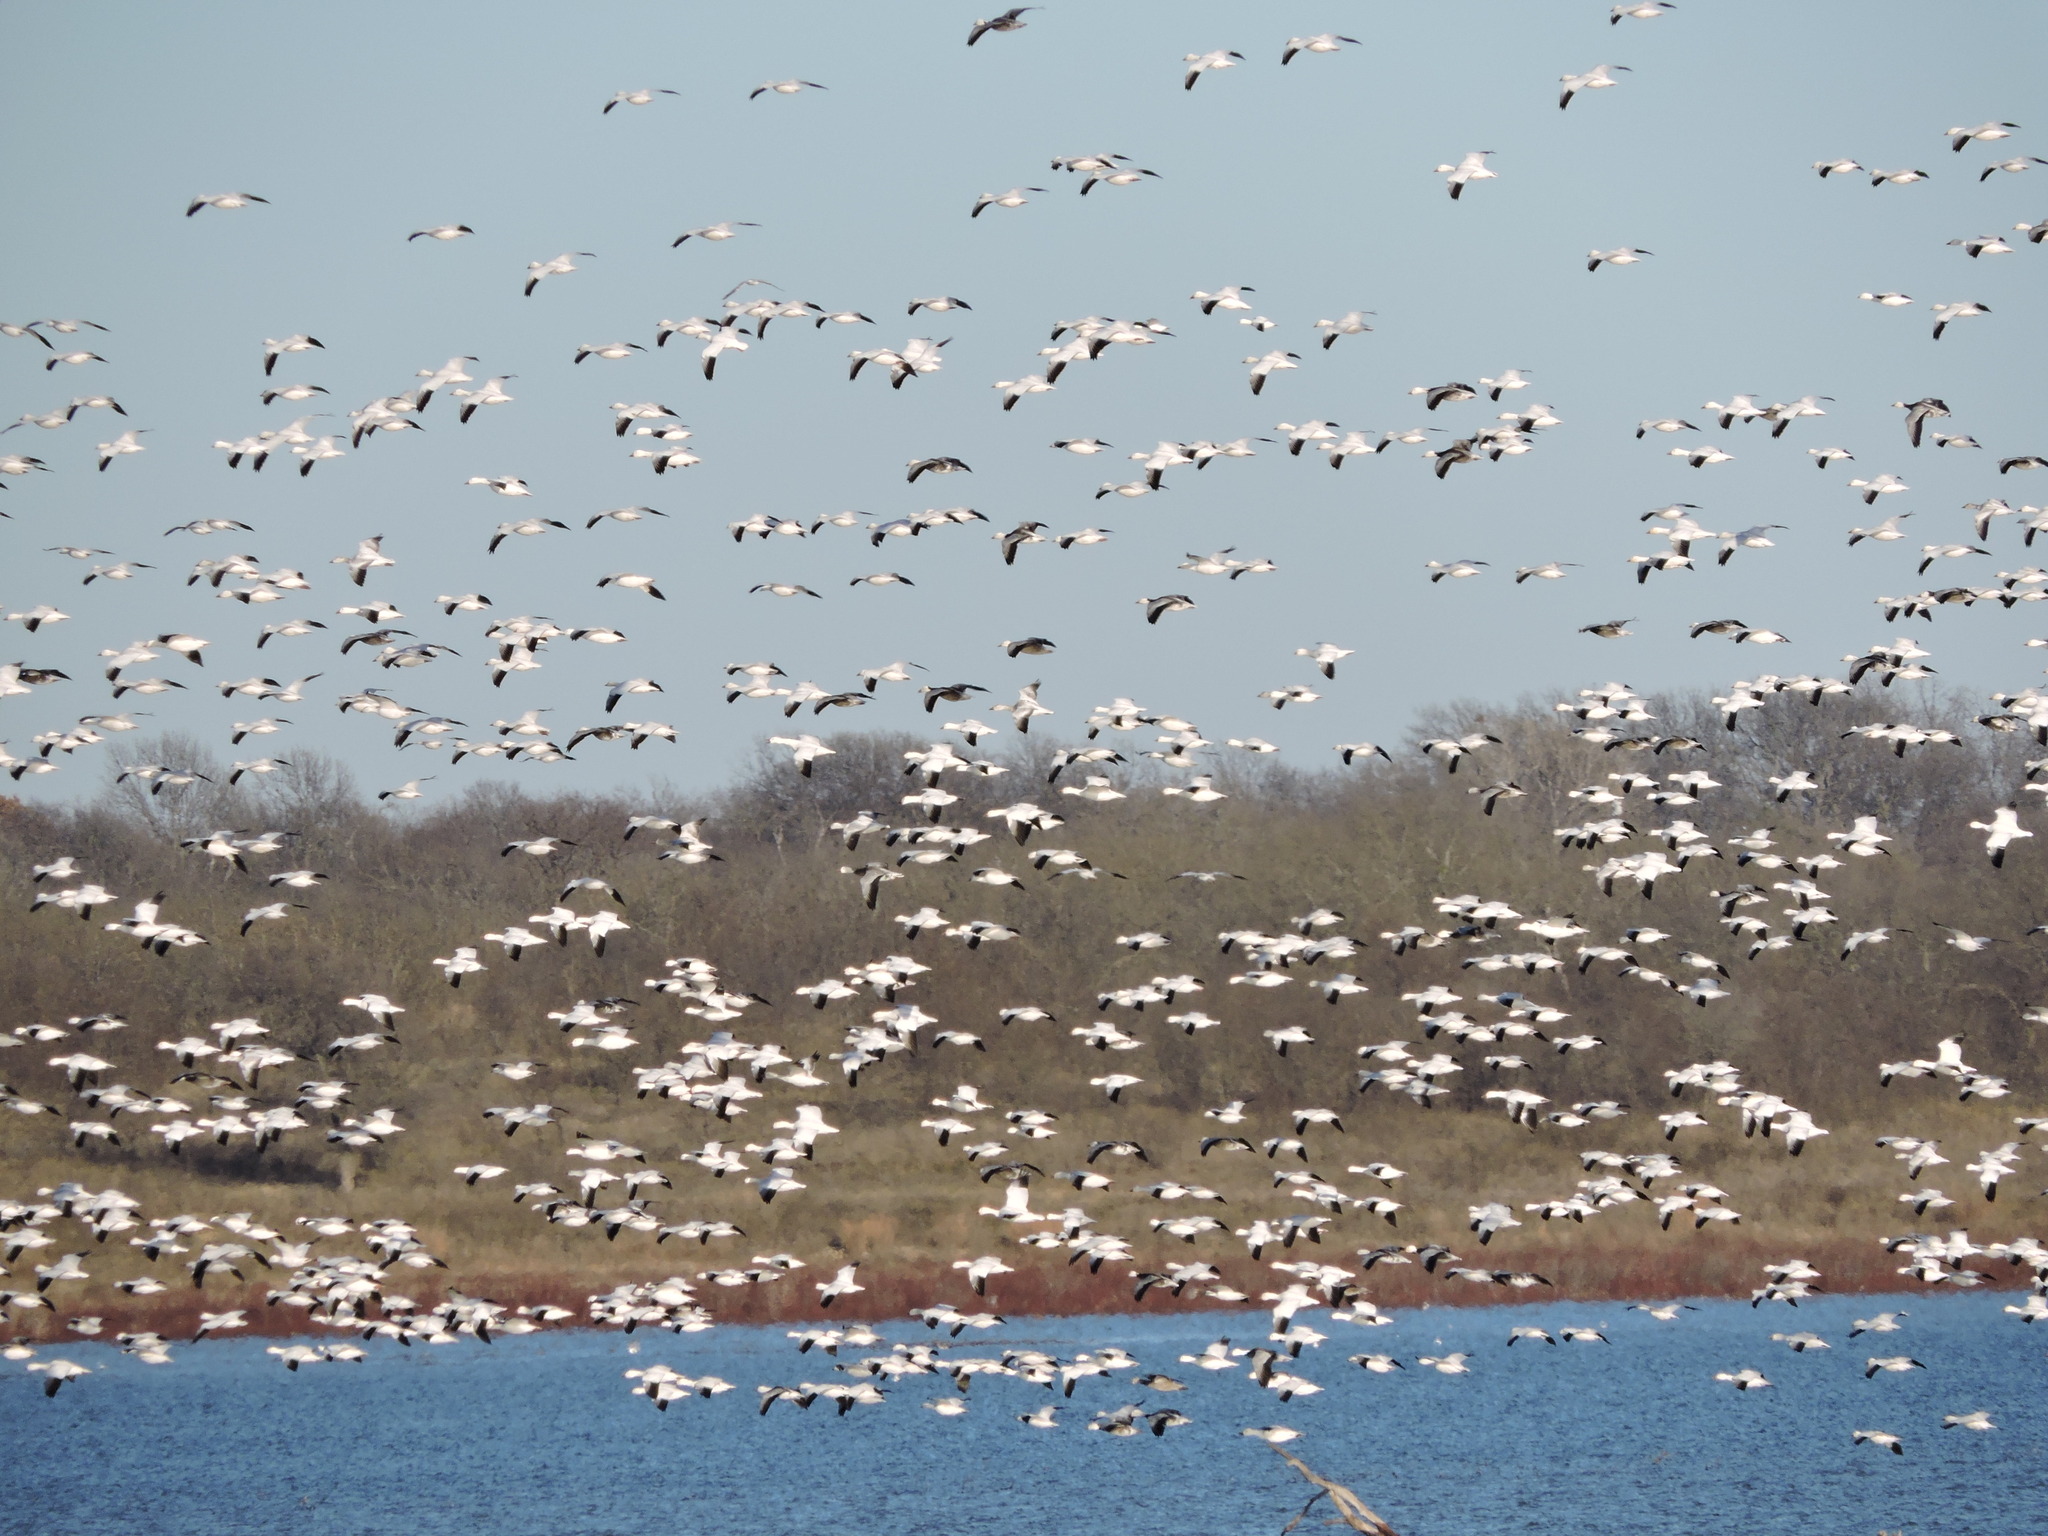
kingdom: Animalia
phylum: Chordata
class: Aves
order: Anseriformes
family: Anatidae
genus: Anser
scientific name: Anser caerulescens
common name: Snow goose
